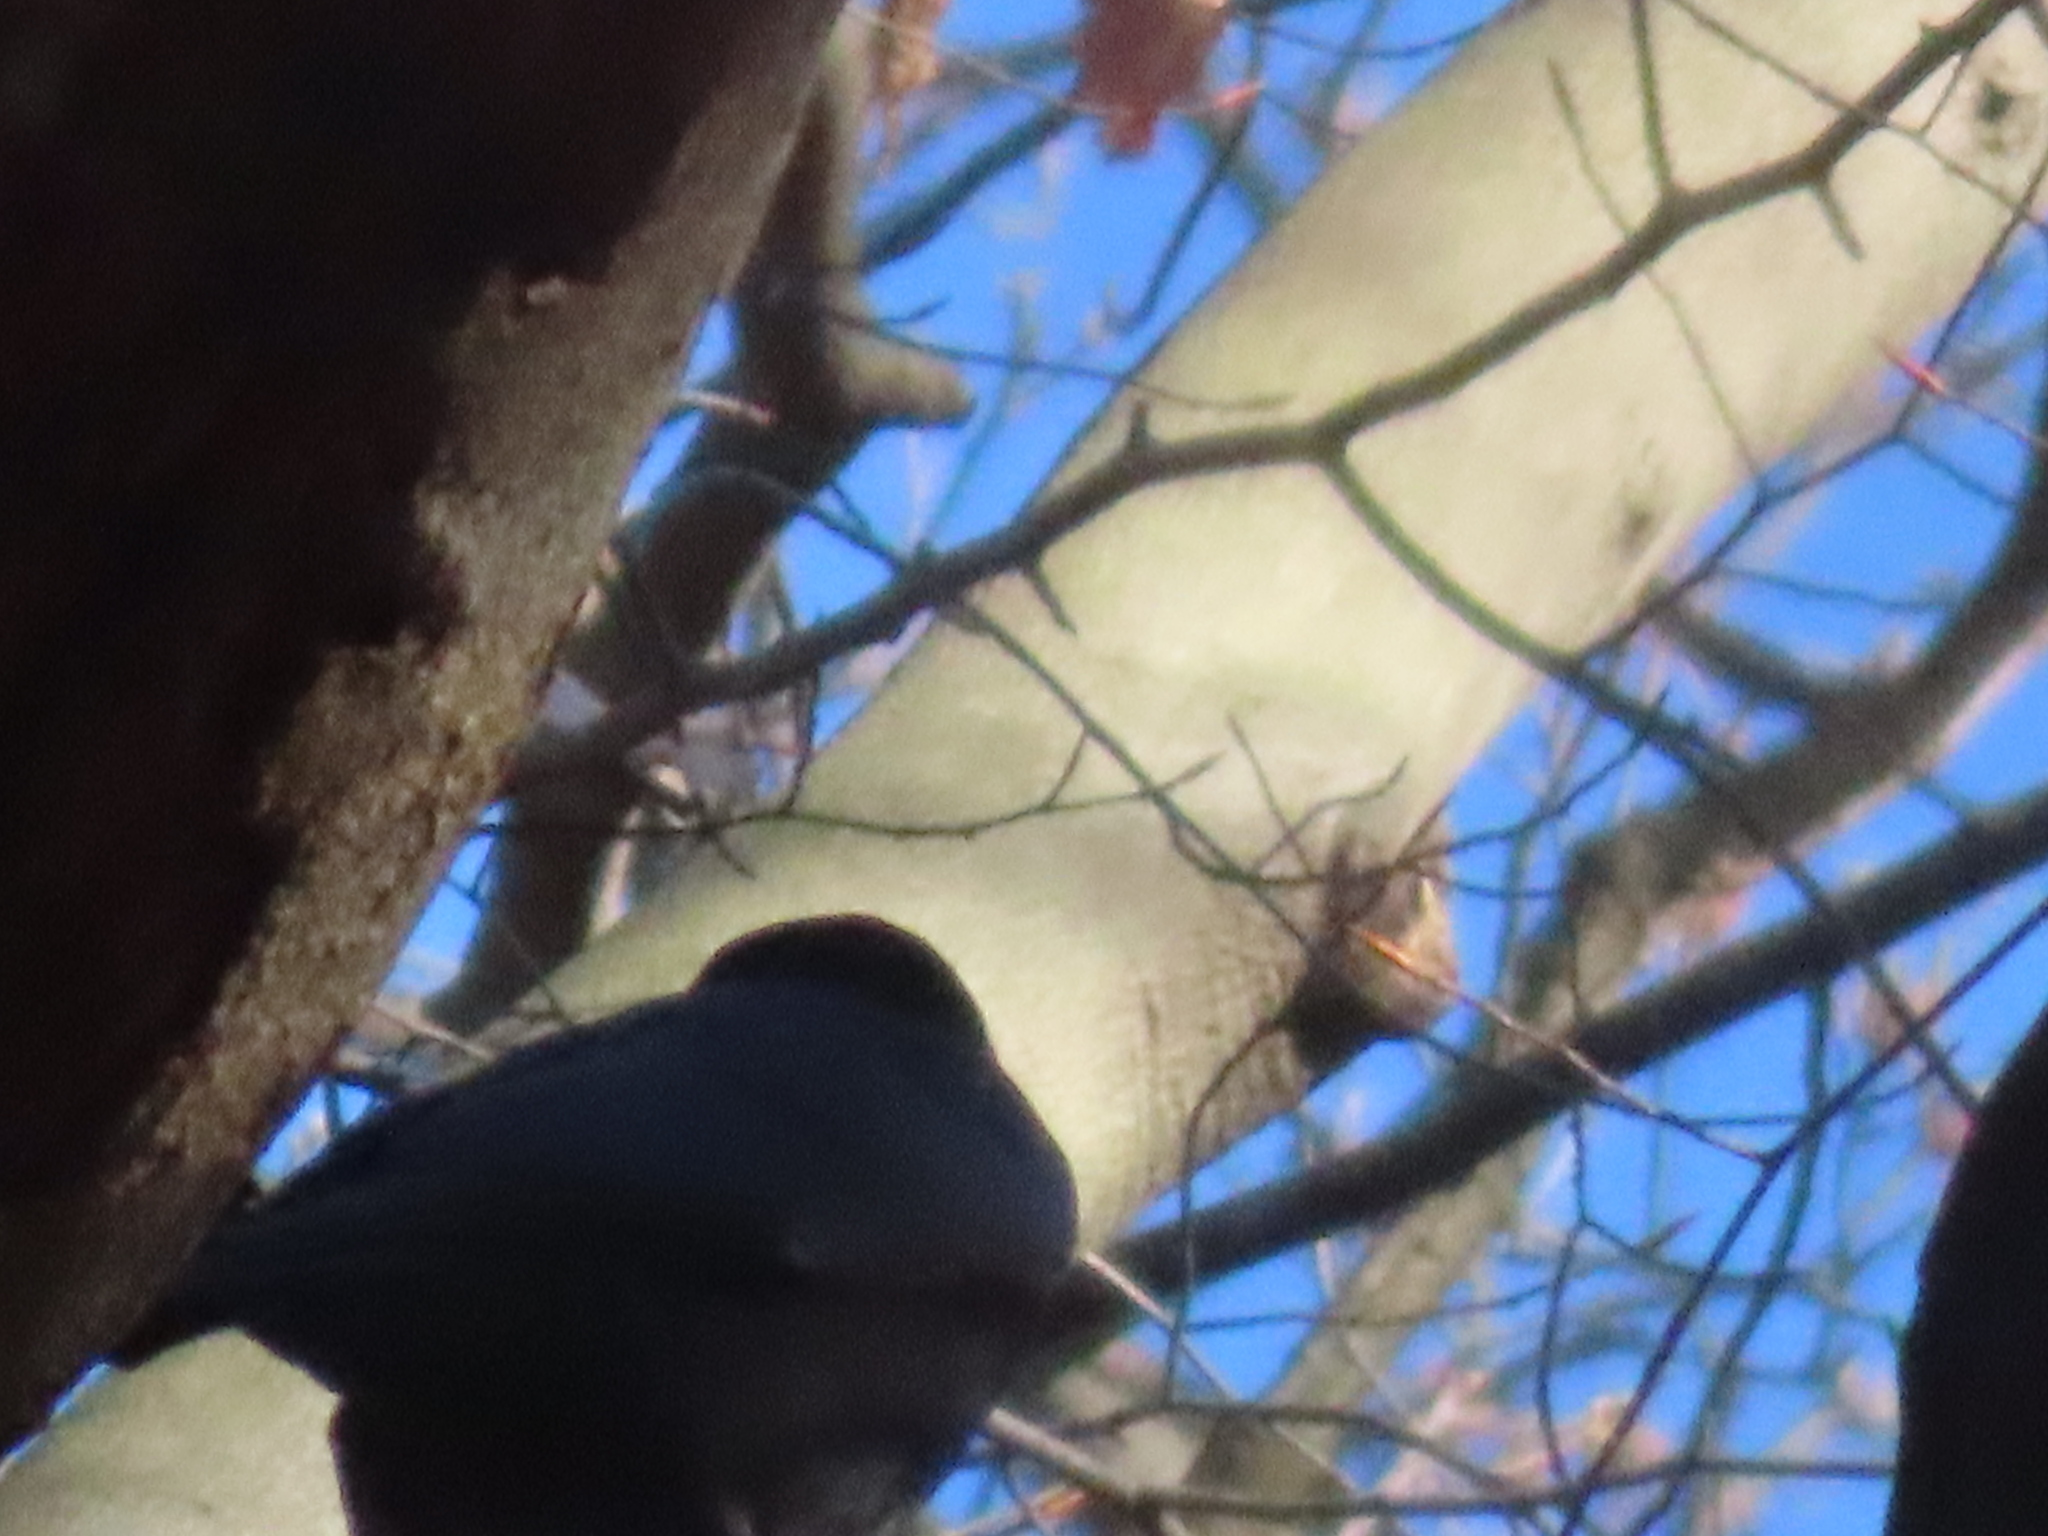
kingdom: Animalia
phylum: Chordata
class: Aves
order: Passeriformes
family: Corvidae
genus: Corvus
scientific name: Corvus brachyrhynchos
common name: American crow
